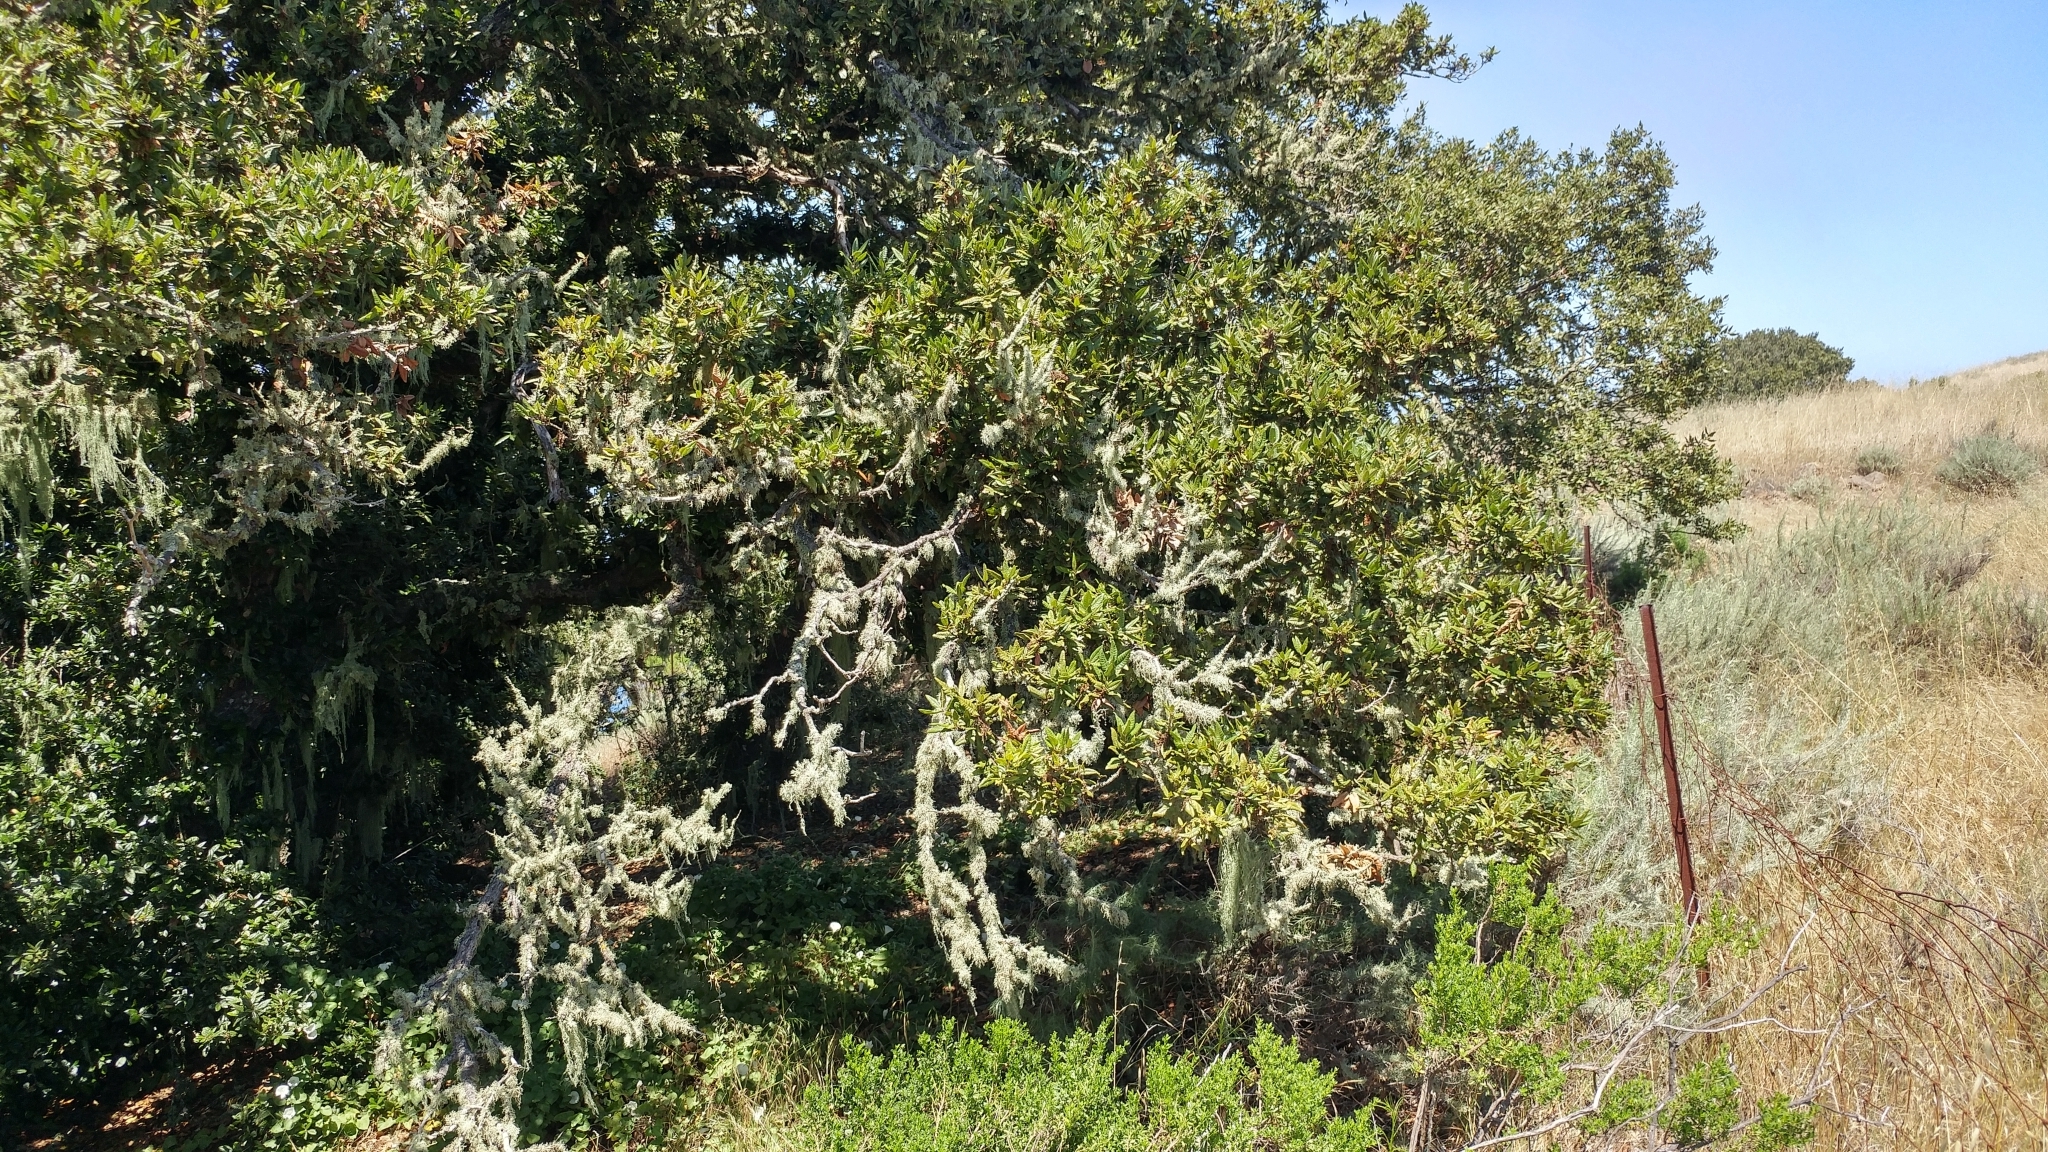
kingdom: Plantae
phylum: Tracheophyta
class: Magnoliopsida
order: Fagales
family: Fagaceae
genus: Quercus
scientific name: Quercus tomentella
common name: Island oak
